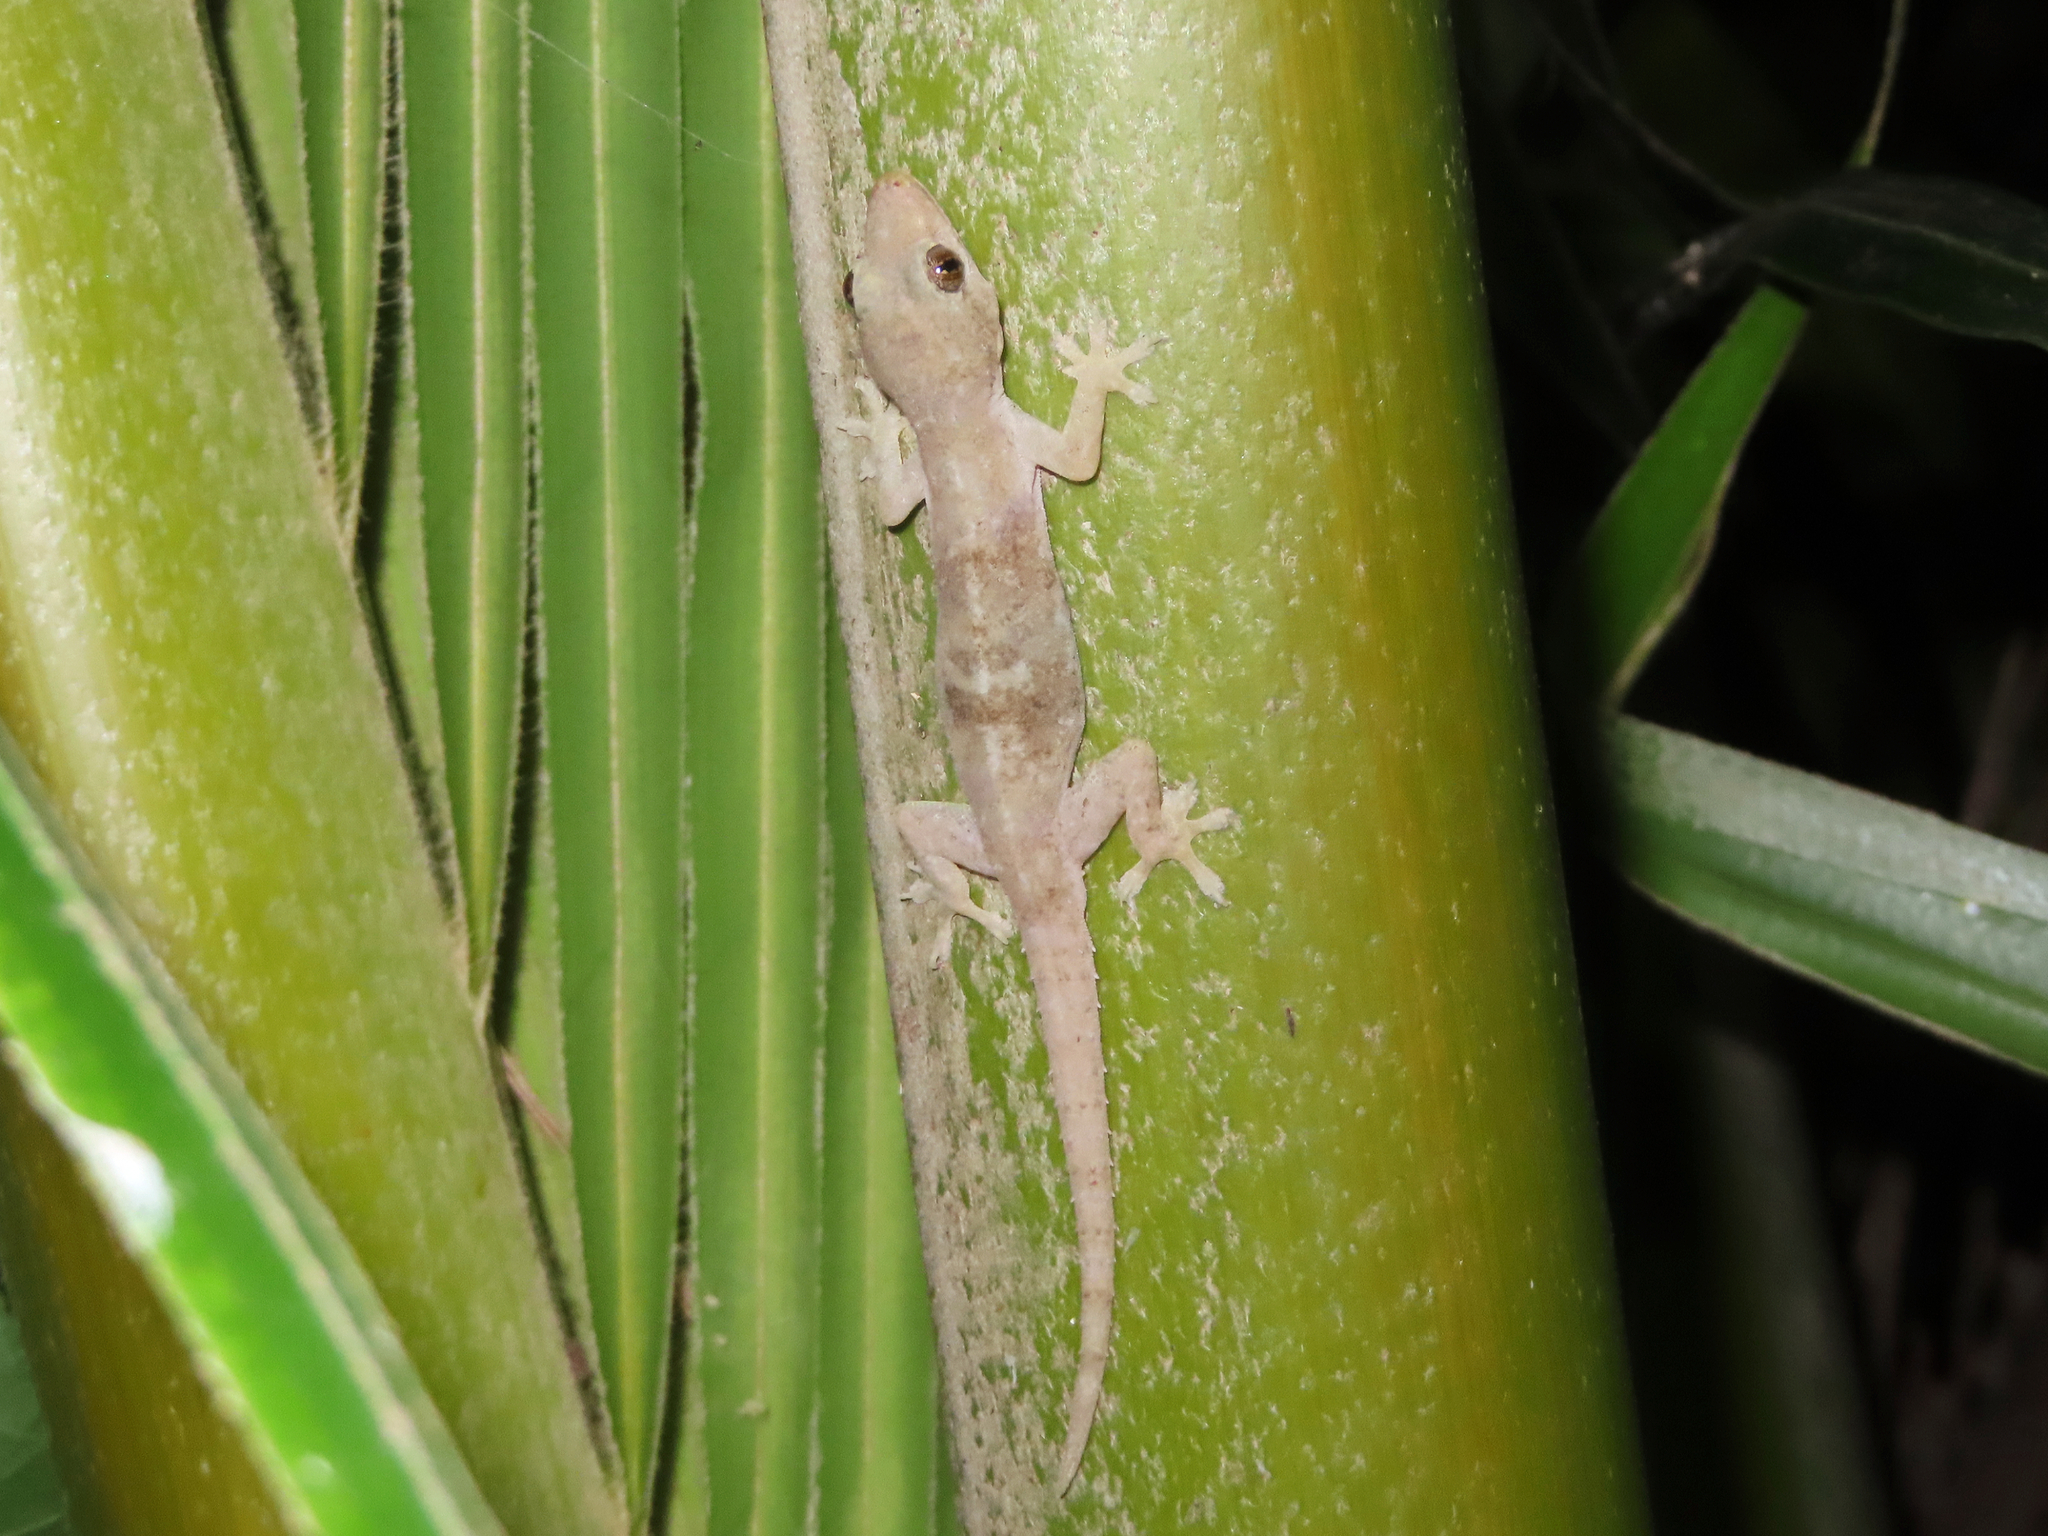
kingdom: Animalia
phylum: Chordata
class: Squamata
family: Gekkonidae
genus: Hemidactylus
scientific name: Hemidactylus frenatus
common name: Common house gecko
